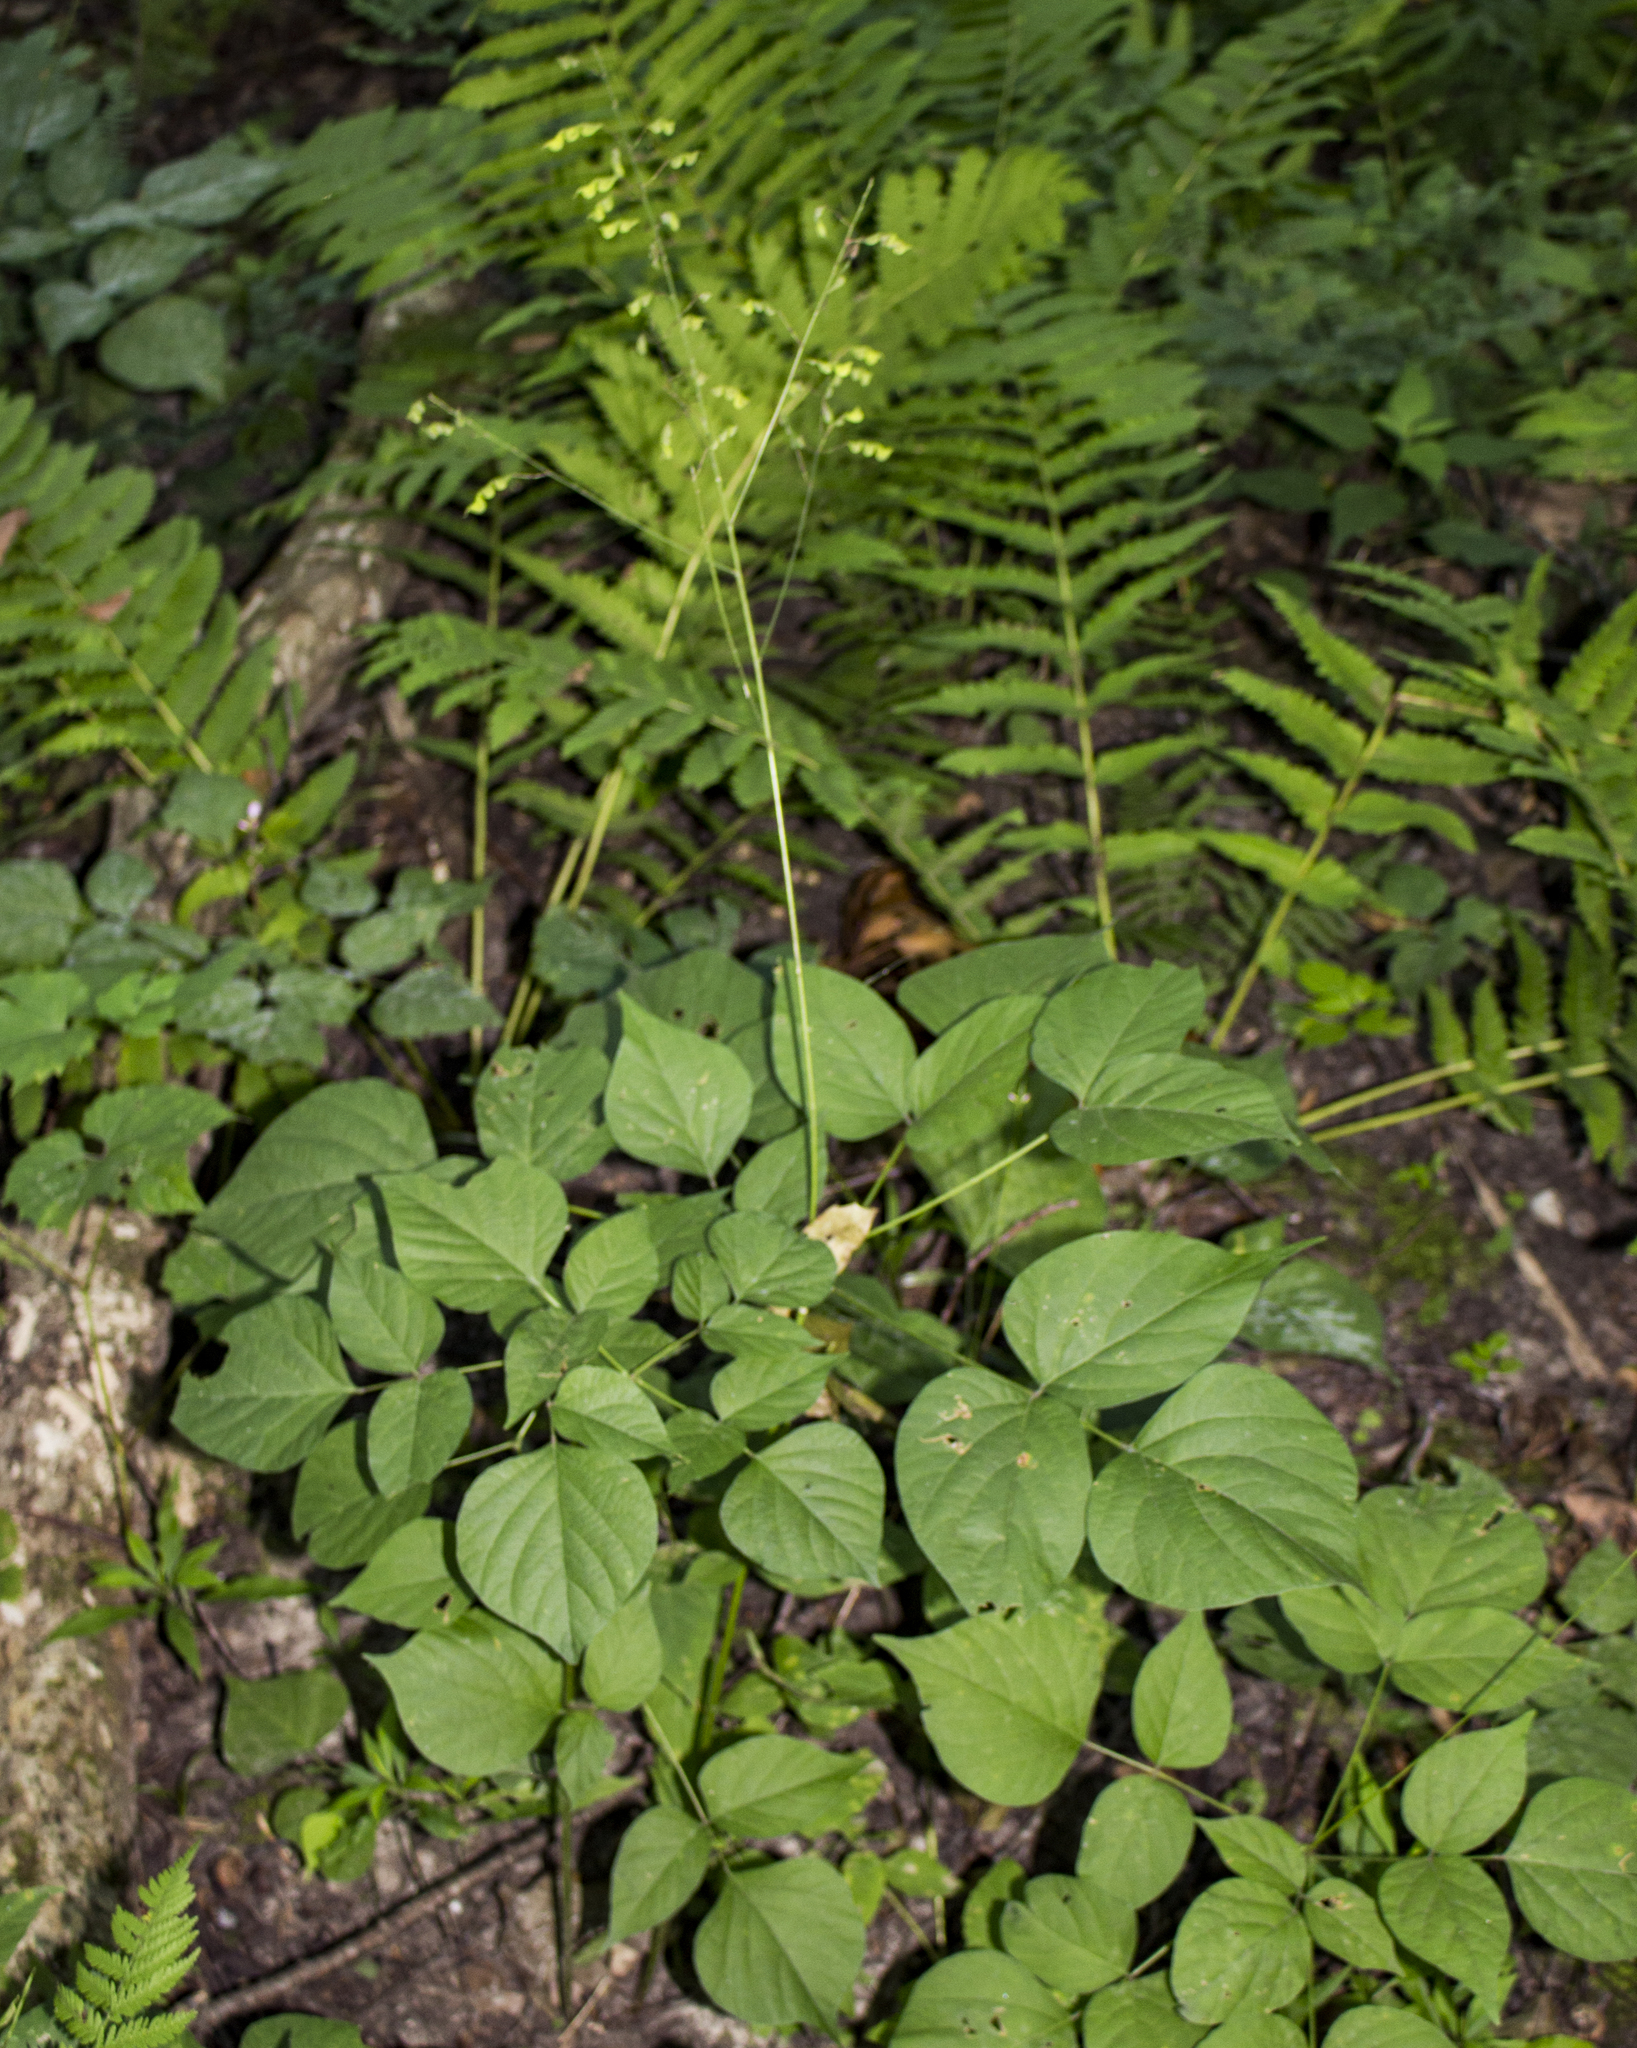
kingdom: Plantae
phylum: Tracheophyta
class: Magnoliopsida
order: Fabales
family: Fabaceae
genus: Hylodesmum
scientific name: Hylodesmum glutinosum
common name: Clustered-leaved tick-trefoil
